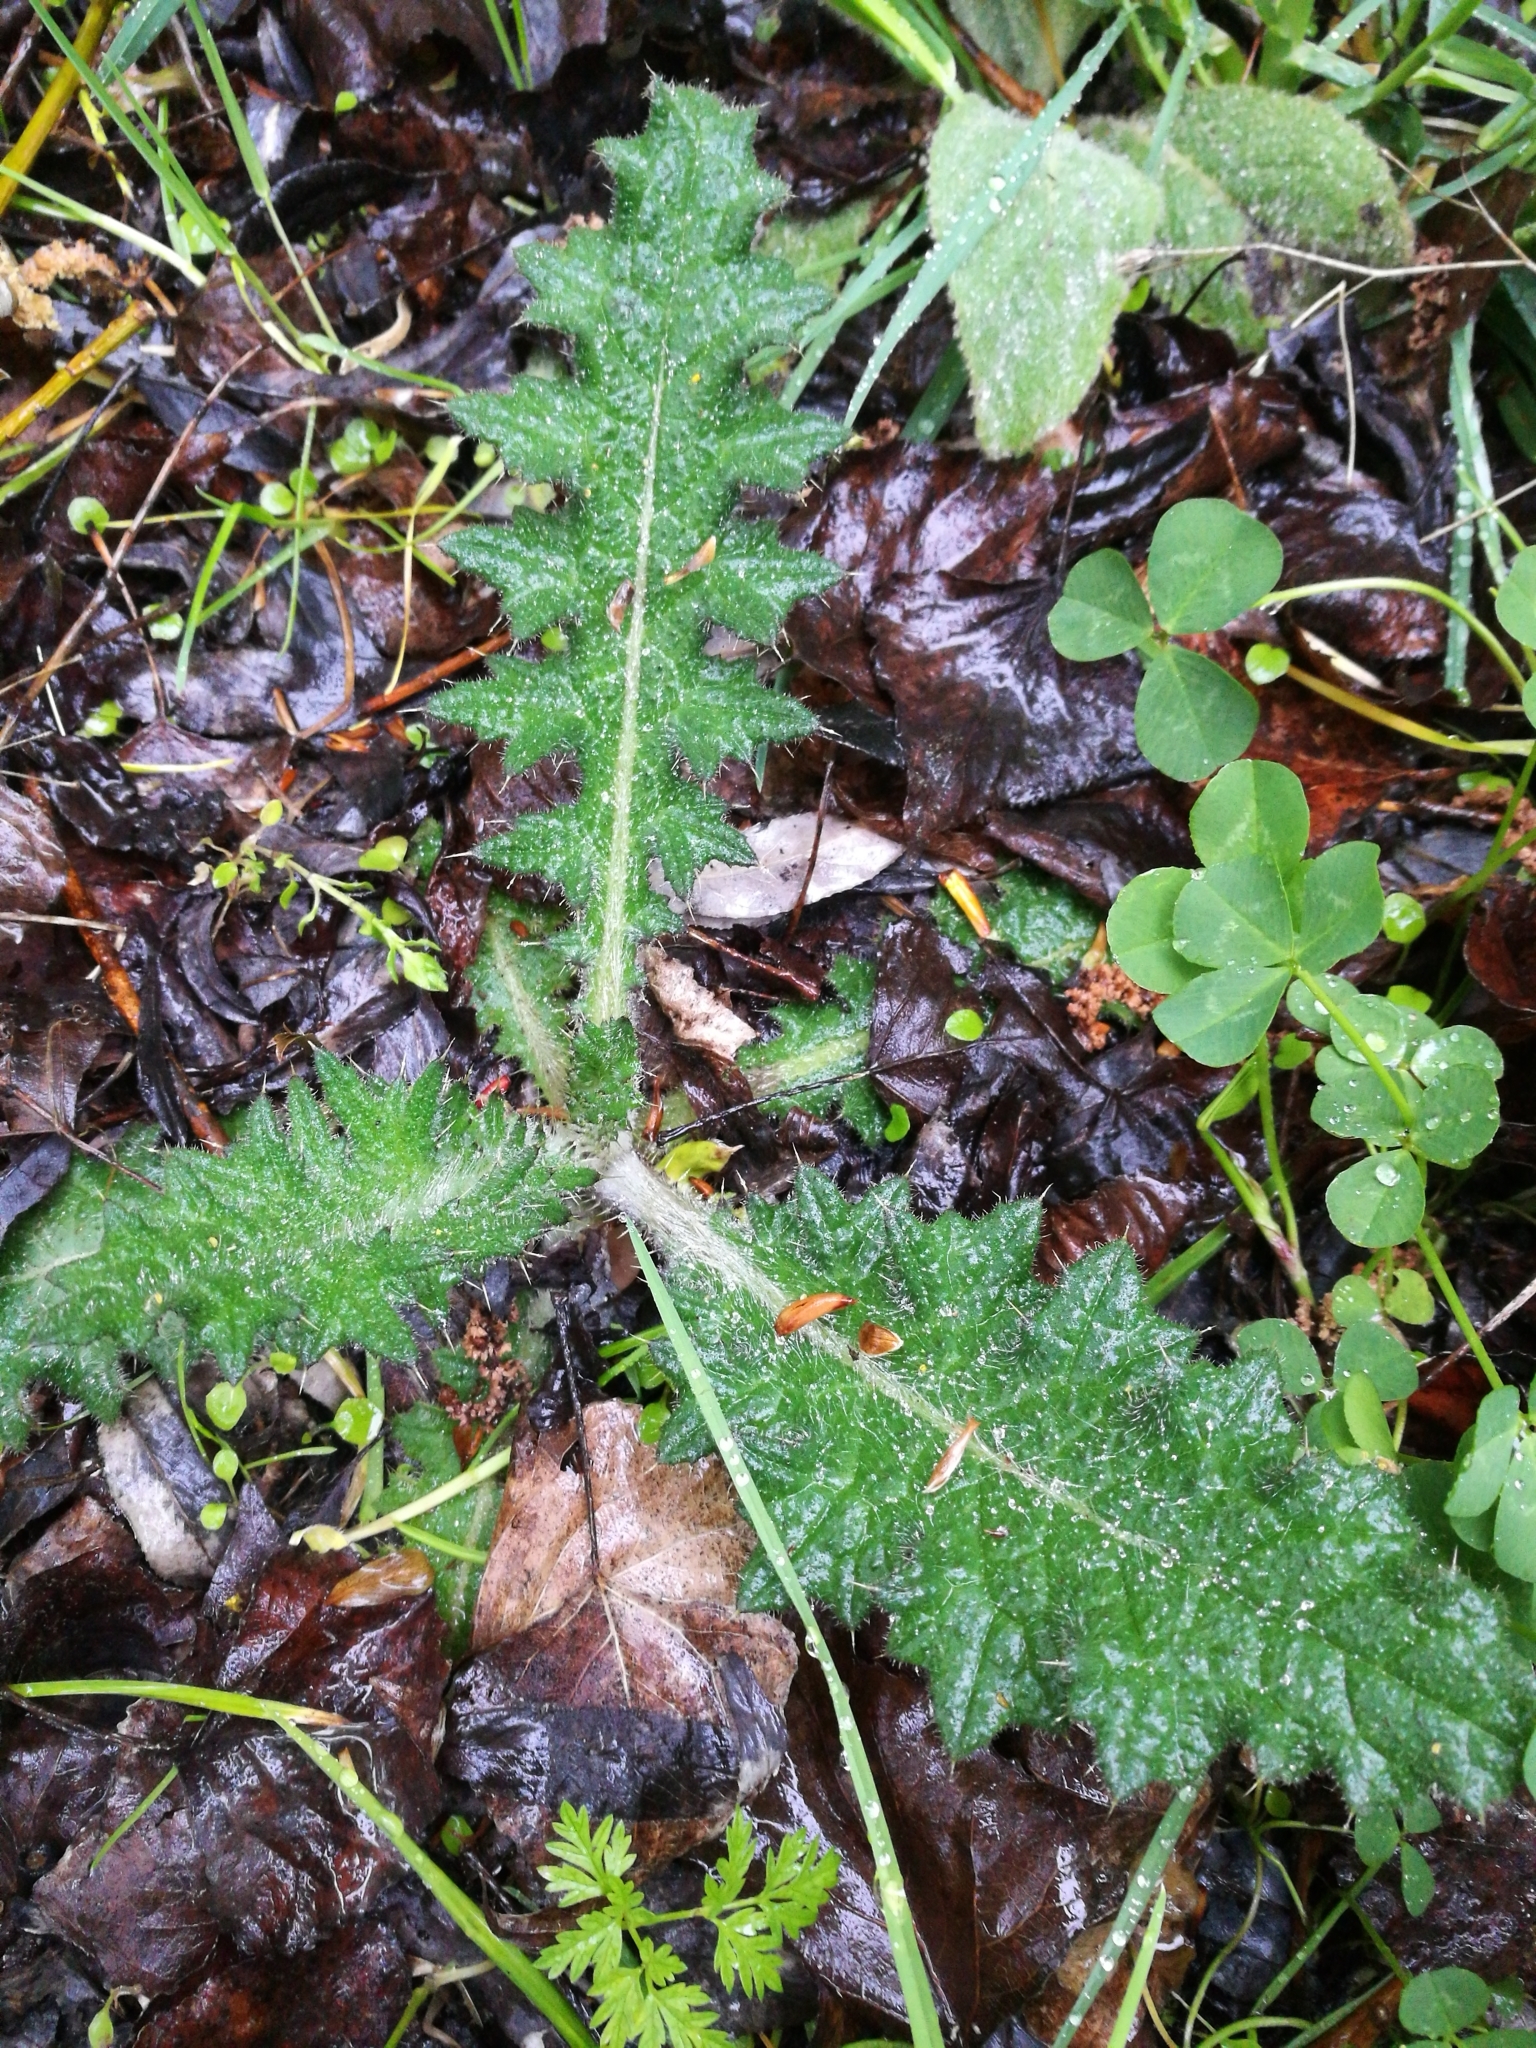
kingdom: Plantae
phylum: Tracheophyta
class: Magnoliopsida
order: Asterales
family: Asteraceae
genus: Cirsium
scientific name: Cirsium vulgare
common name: Bull thistle
